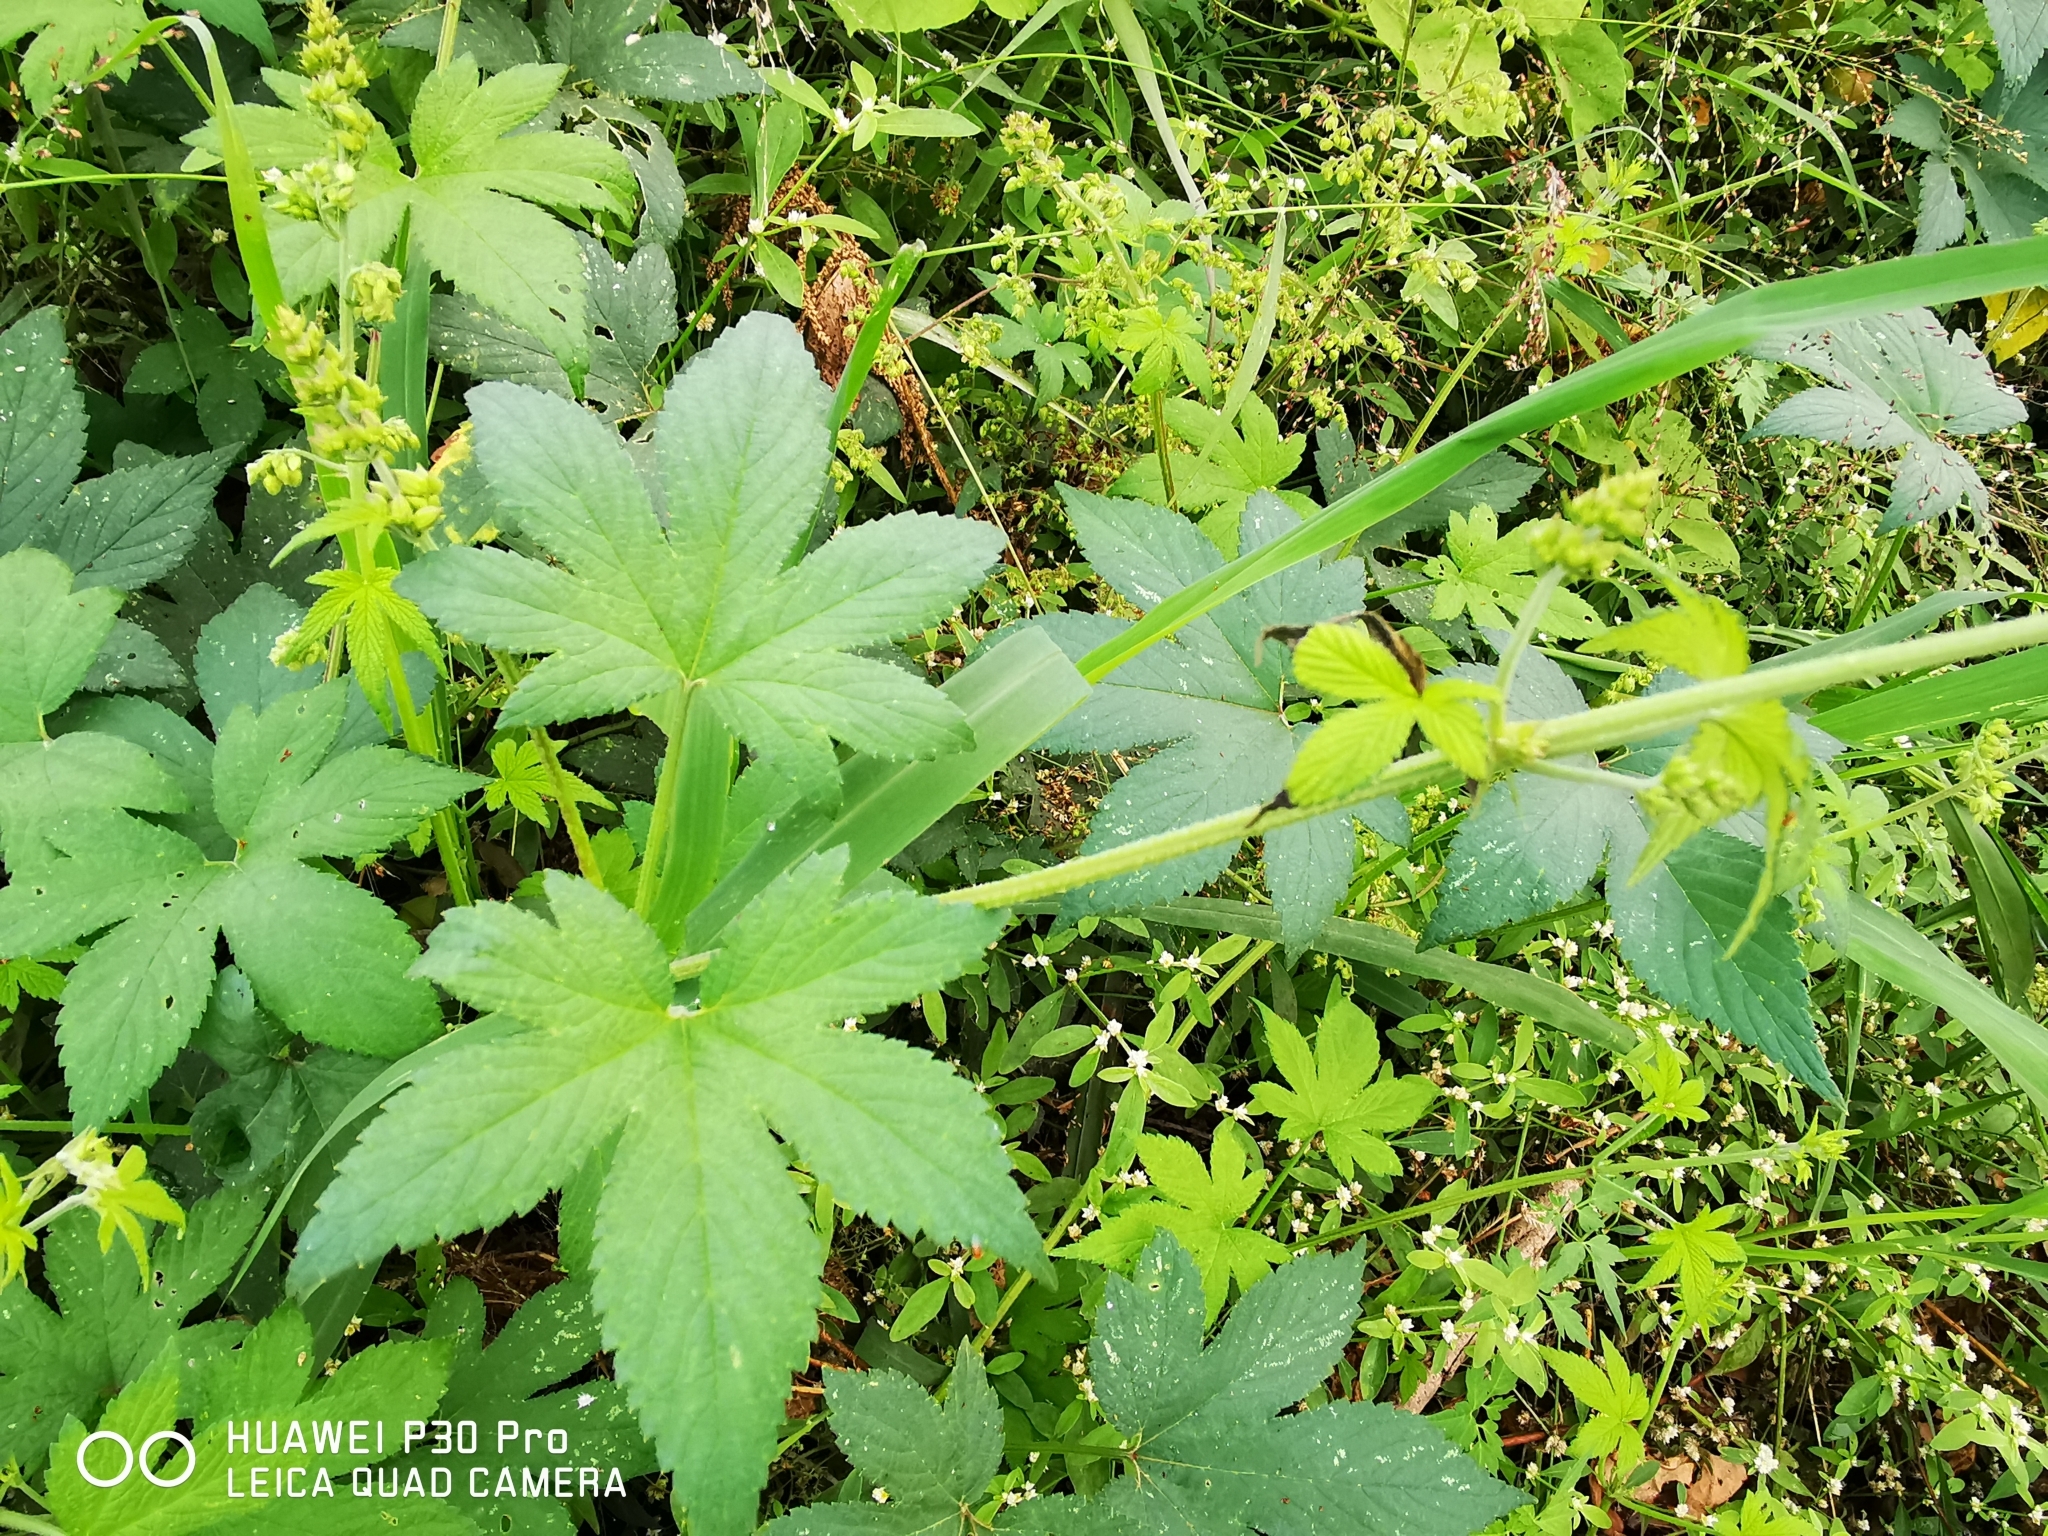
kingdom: Plantae
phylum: Tracheophyta
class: Magnoliopsida
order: Rosales
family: Cannabaceae
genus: Humulus
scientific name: Humulus scandens
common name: Japanese hop
